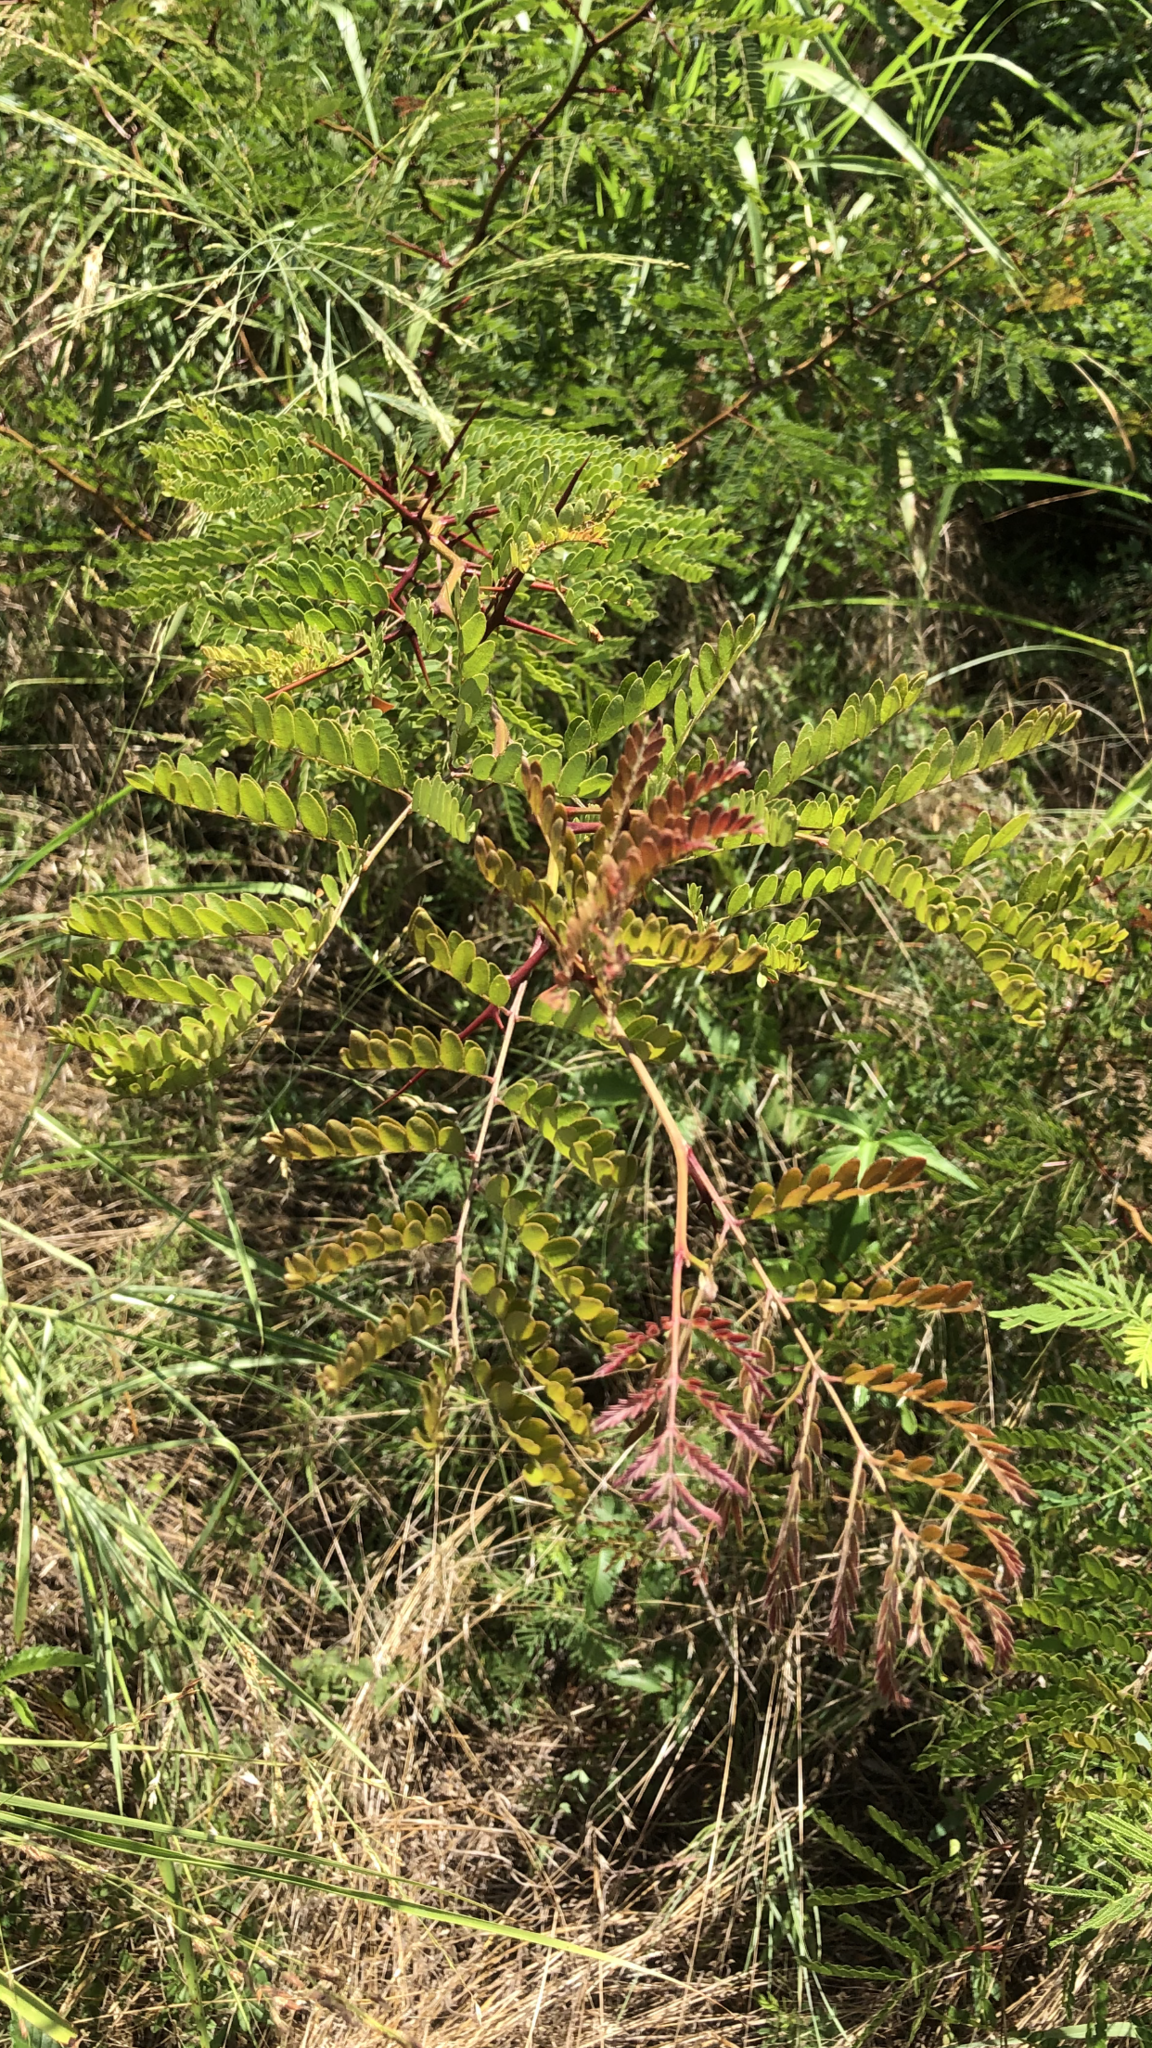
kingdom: Plantae
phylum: Tracheophyta
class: Magnoliopsida
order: Fabales
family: Fabaceae
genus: Gleditsia
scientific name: Gleditsia triacanthos
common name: Common honeylocust
